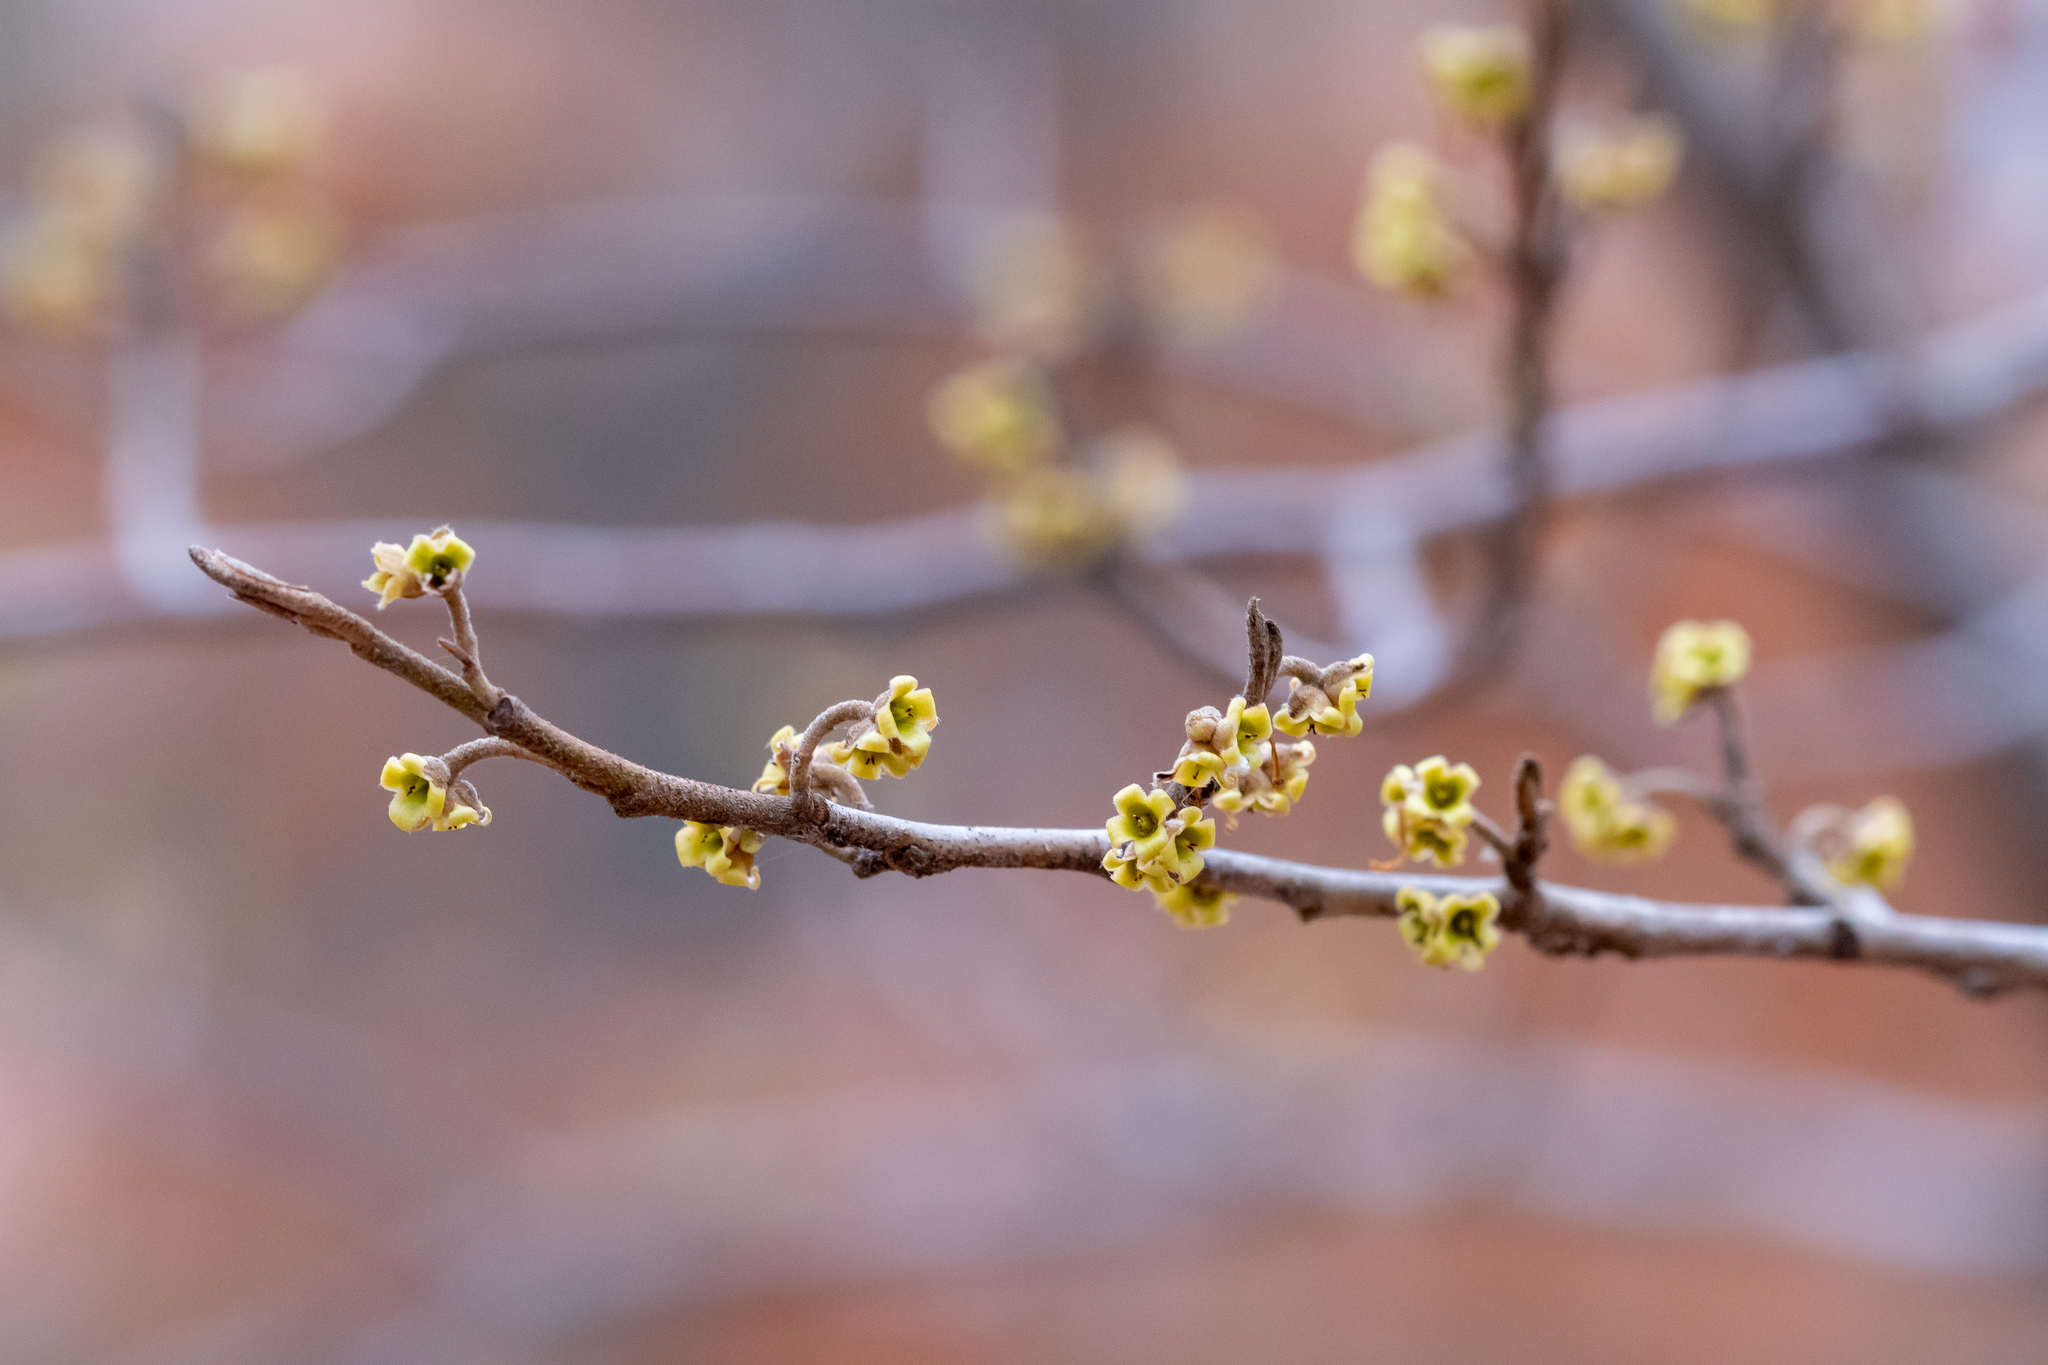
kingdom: Plantae
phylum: Tracheophyta
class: Magnoliopsida
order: Saxifragales
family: Hamamelidaceae
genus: Hamamelis
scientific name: Hamamelis virginiana
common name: Witch-hazel
